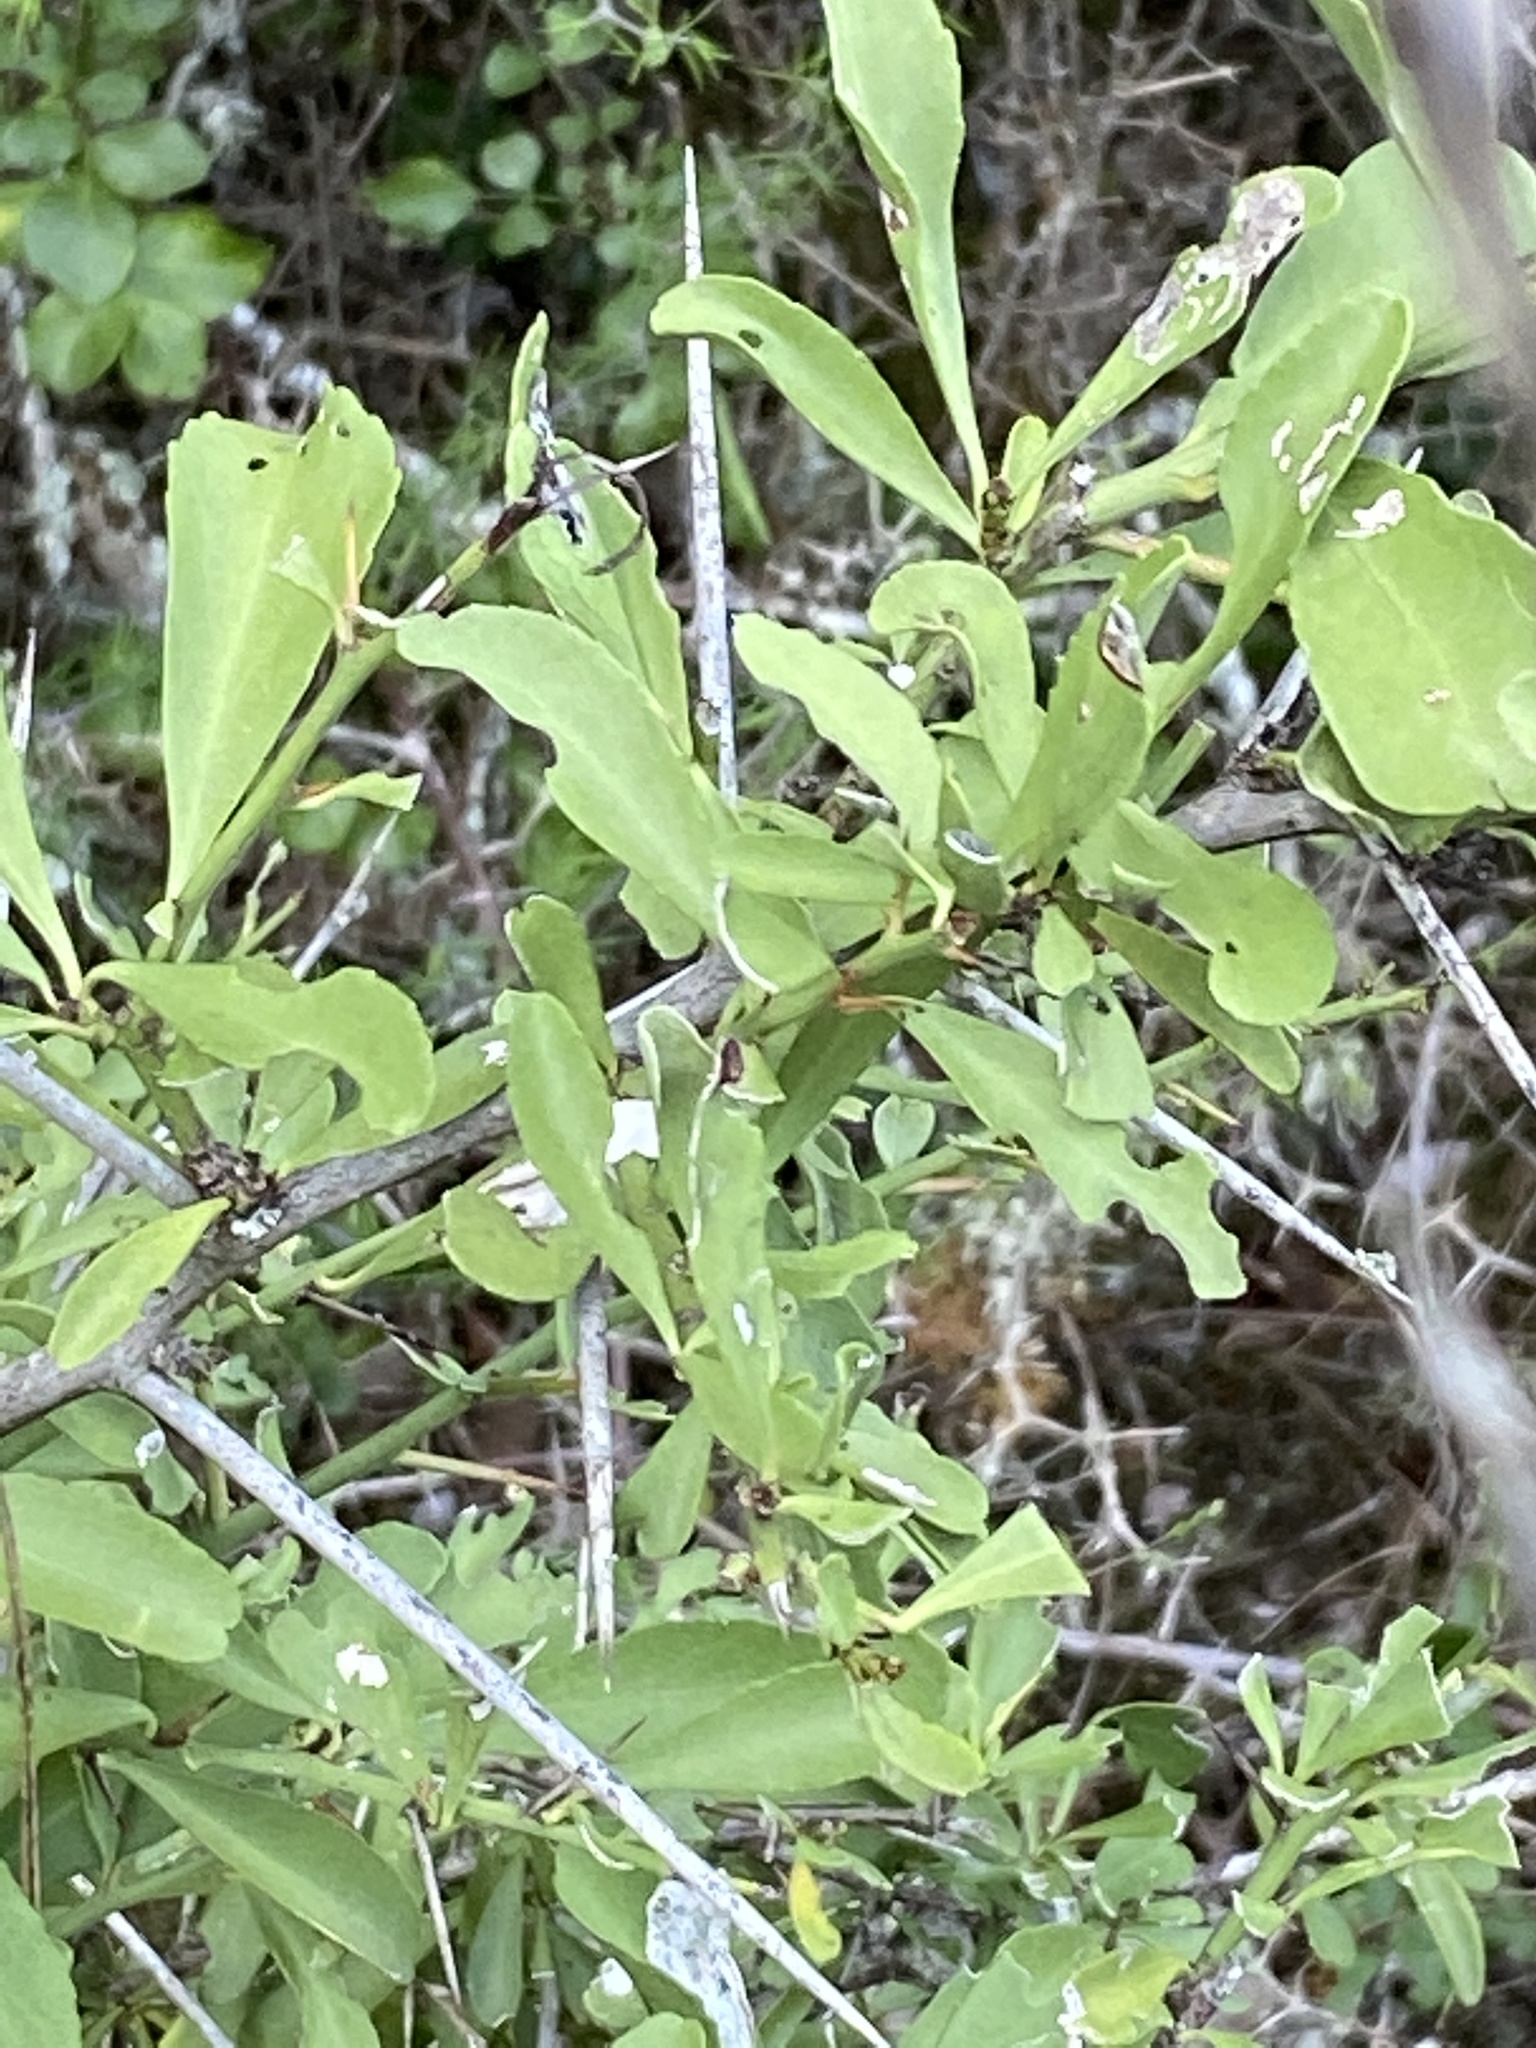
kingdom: Plantae
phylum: Tracheophyta
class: Magnoliopsida
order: Brassicales
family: Salvadoraceae
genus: Azima
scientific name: Azima tetracantha
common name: Needle bush
